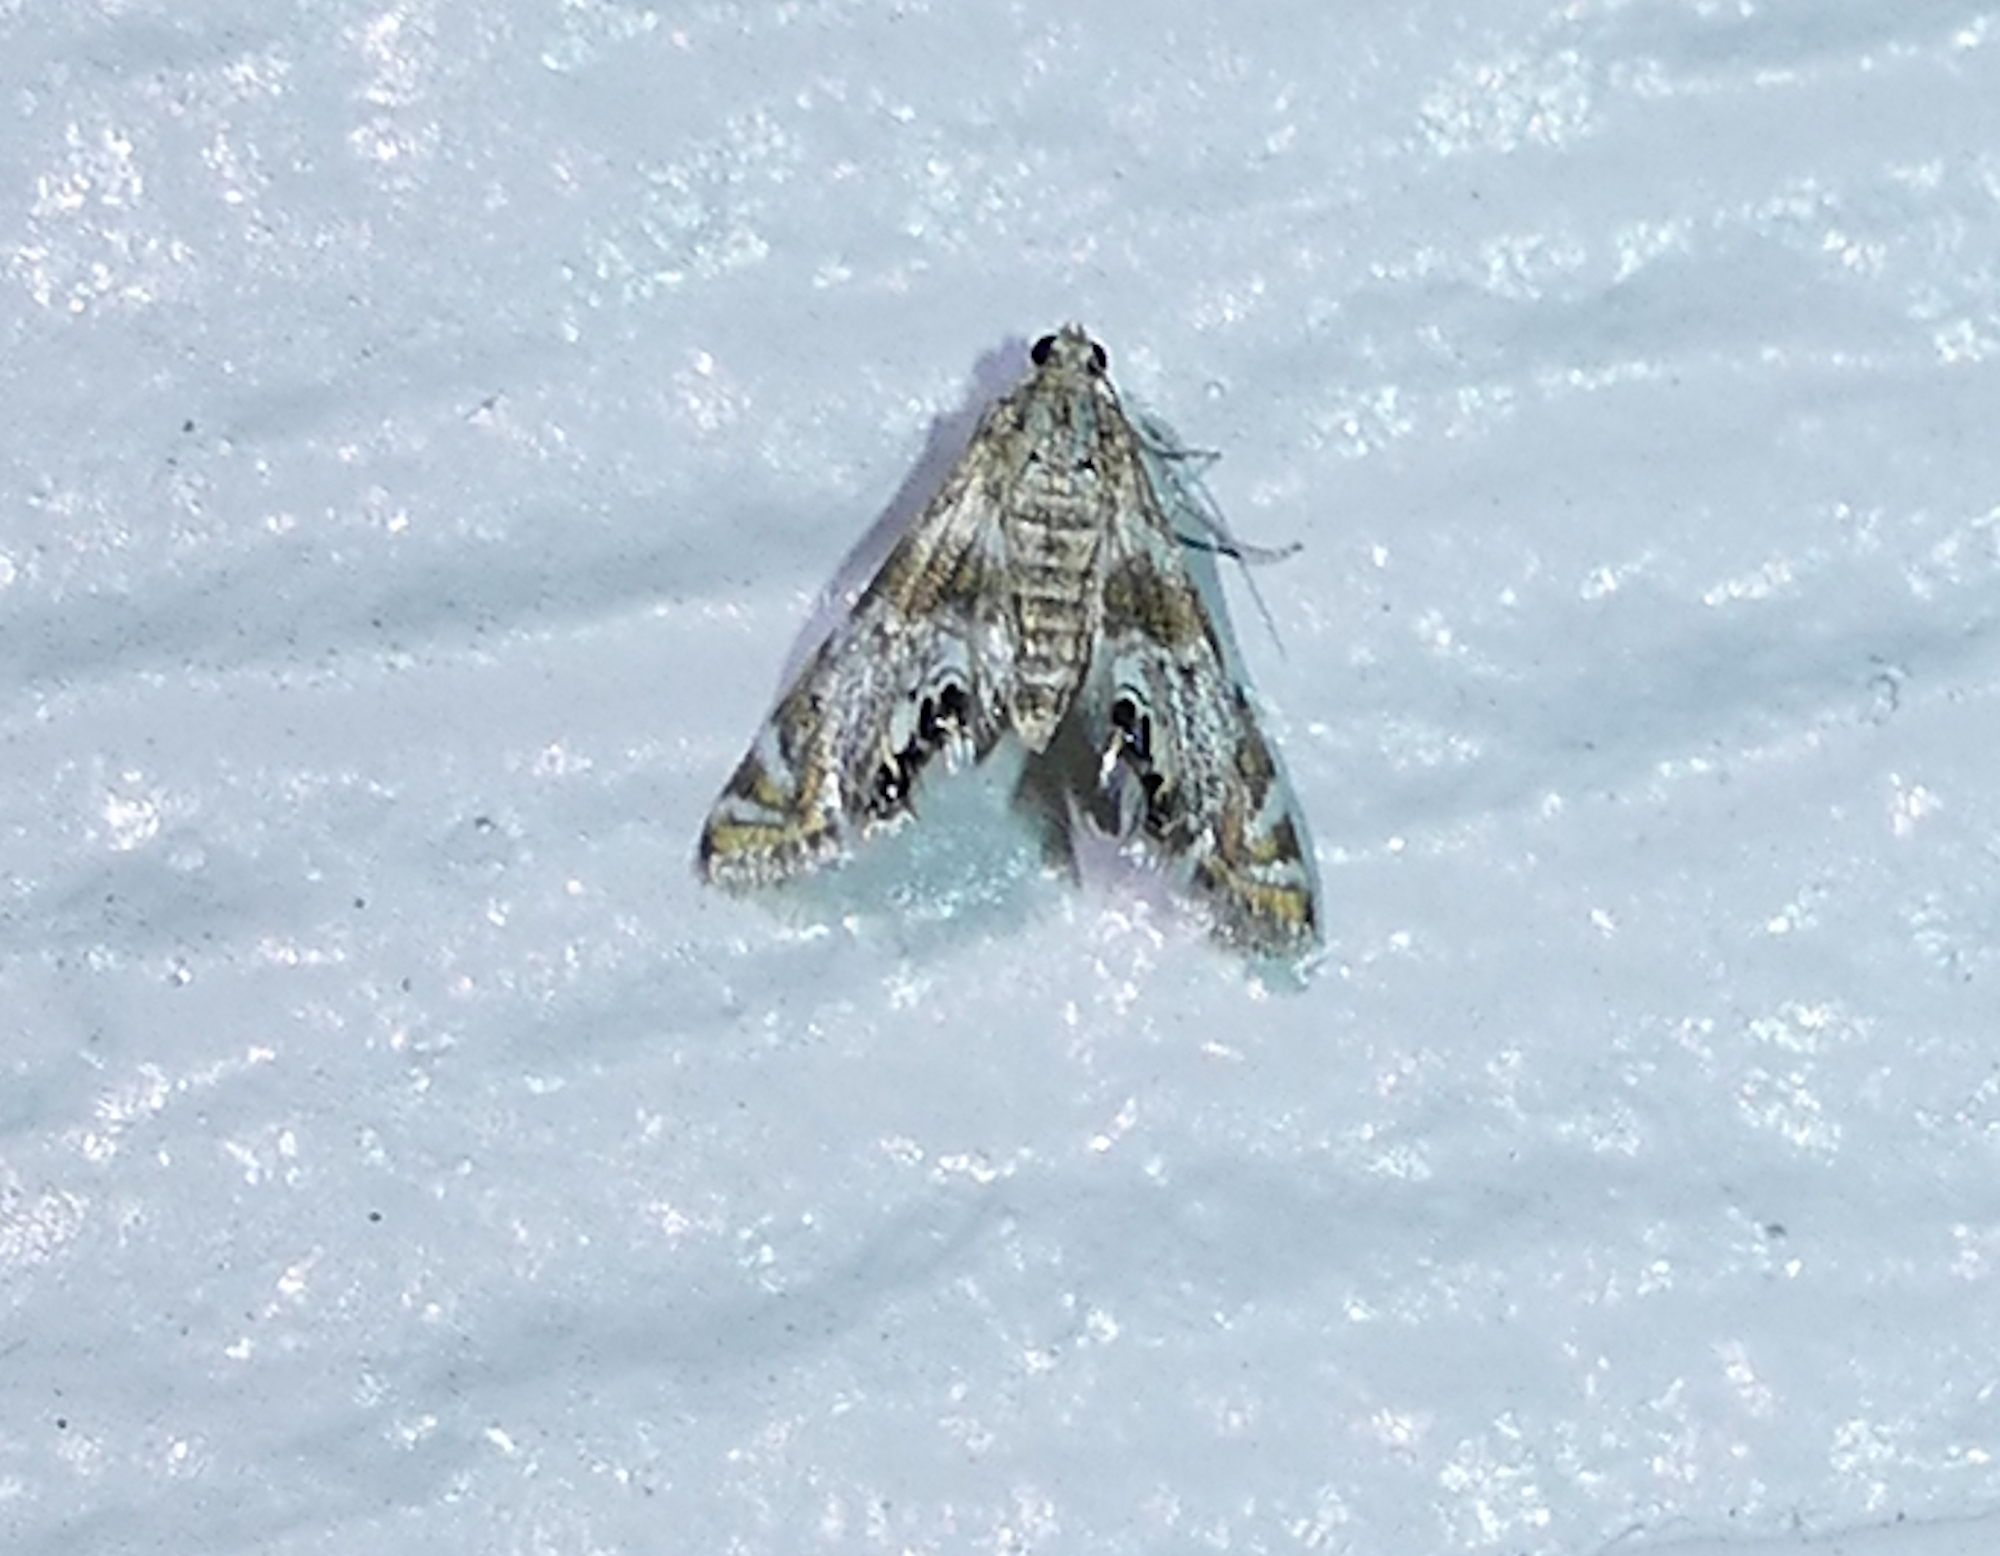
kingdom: Animalia
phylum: Arthropoda
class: Insecta
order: Lepidoptera
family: Crambidae
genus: Petrophila
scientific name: Petrophila
